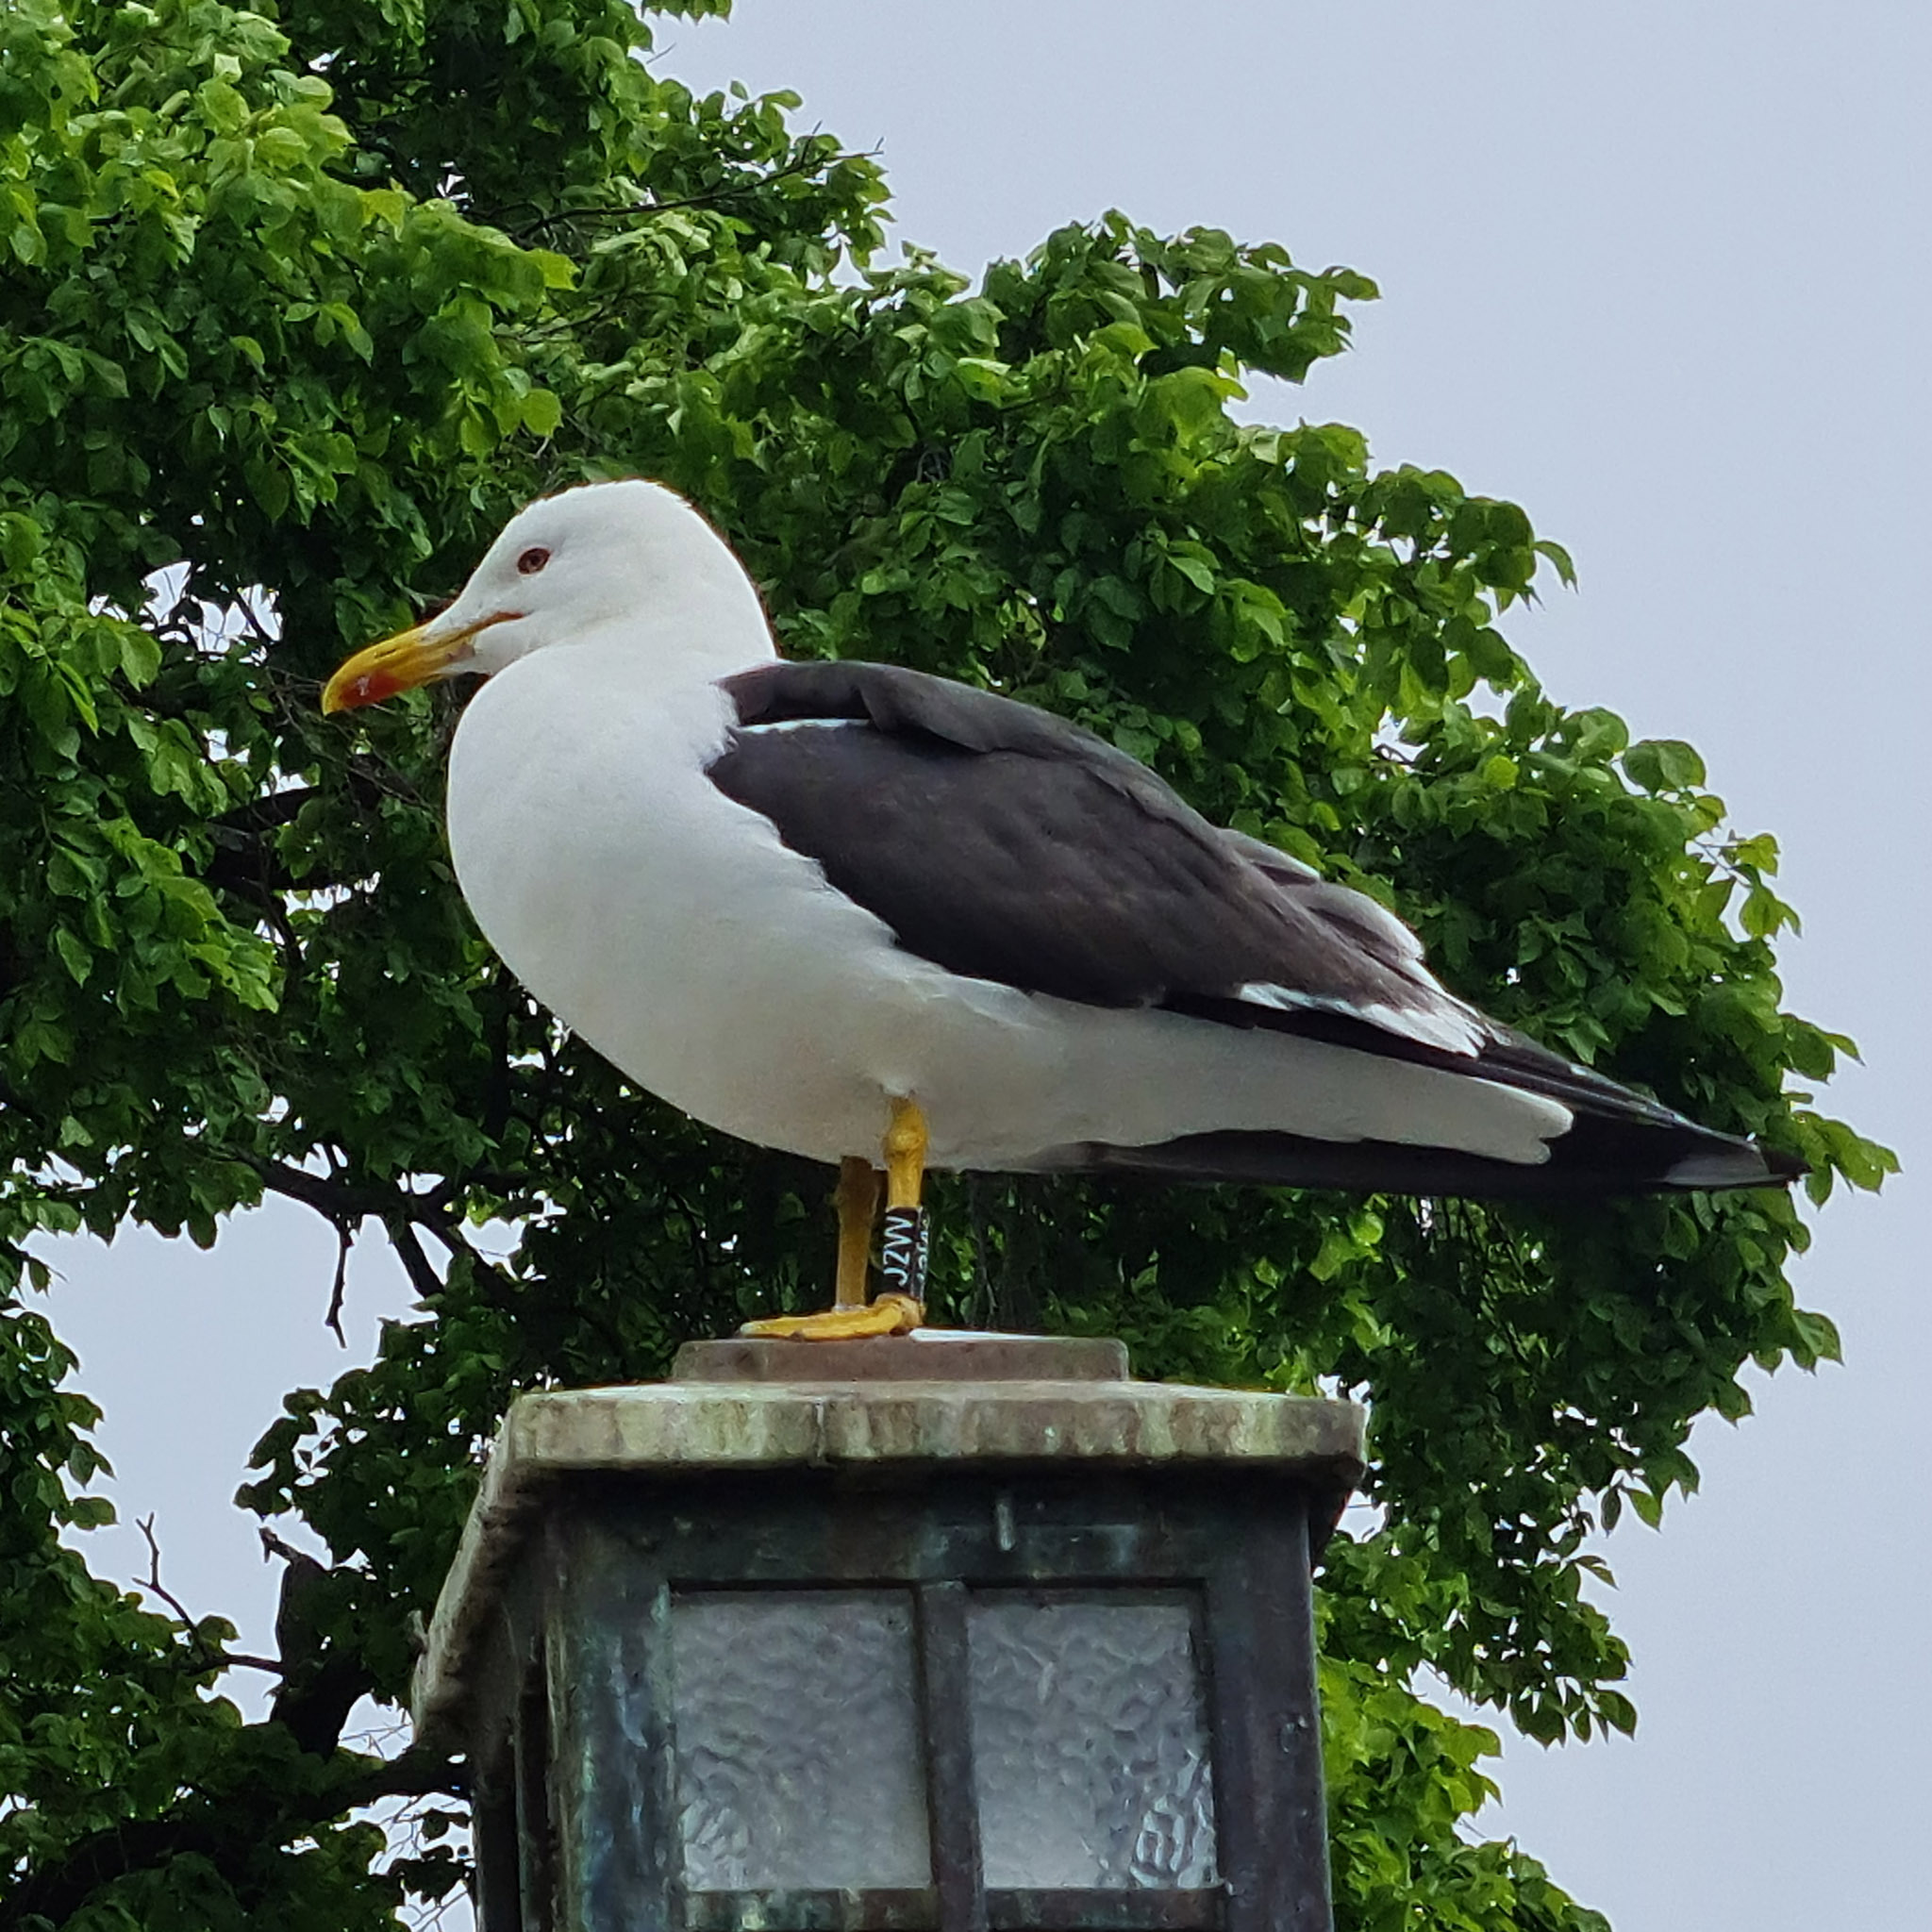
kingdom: Animalia
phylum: Chordata
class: Aves
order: Charadriiformes
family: Laridae
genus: Larus
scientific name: Larus fuscus
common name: Lesser black-backed gull
